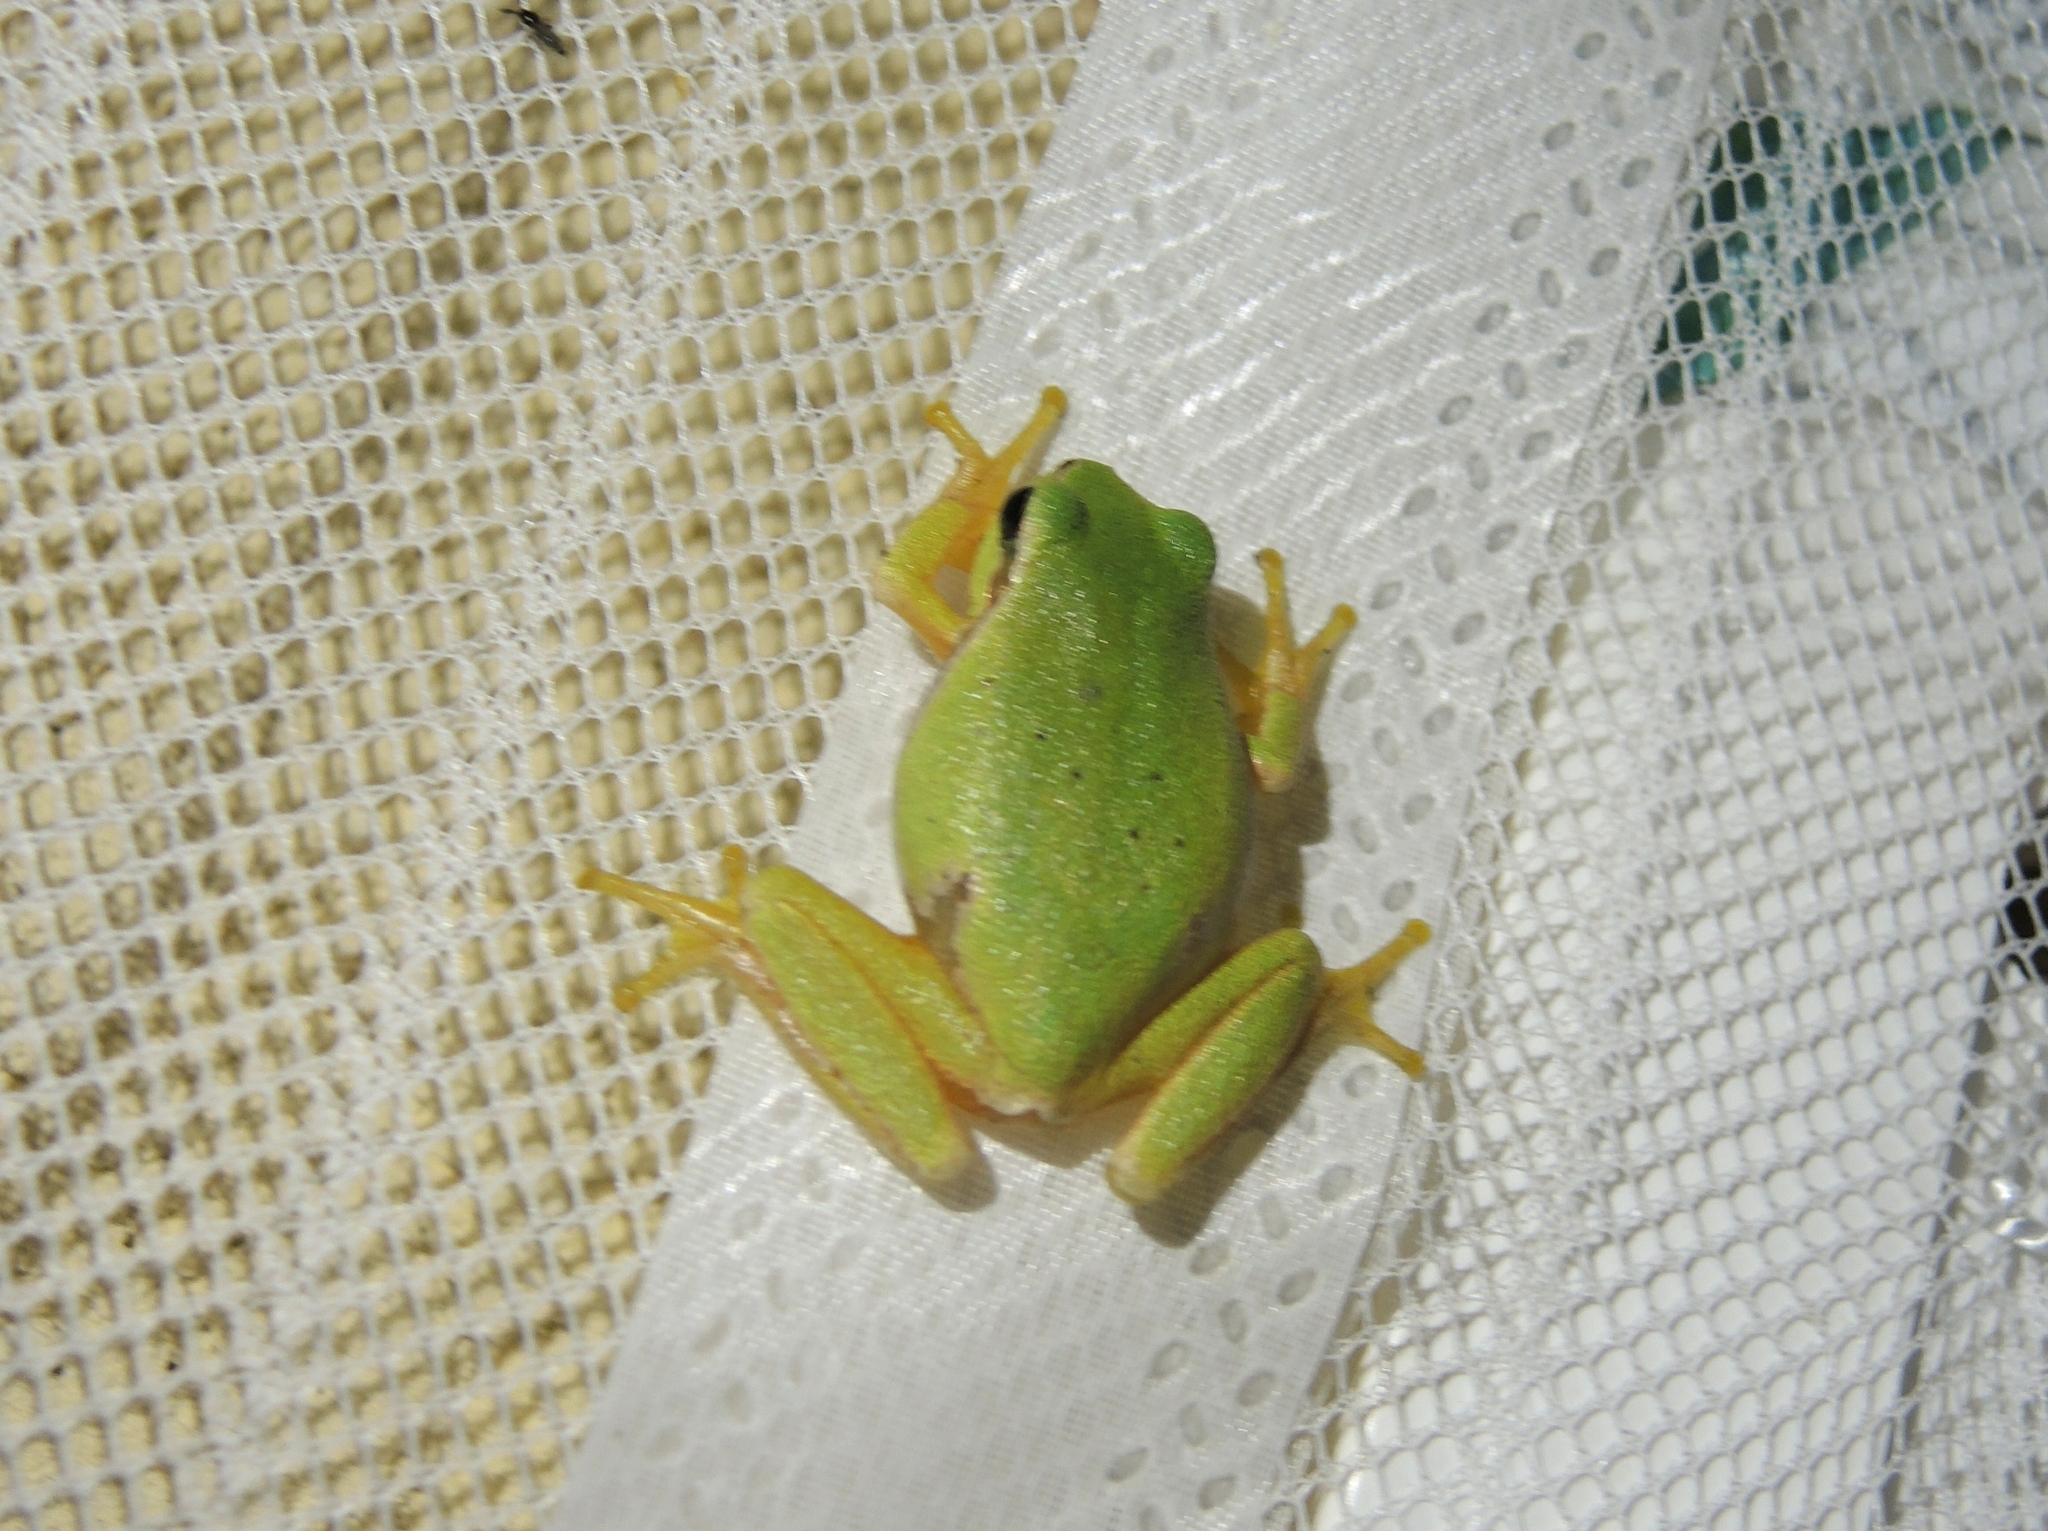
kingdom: Animalia
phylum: Chordata
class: Amphibia
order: Anura
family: Hylidae
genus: Hyla
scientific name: Hyla orientalis
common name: Caucasian treefrog
